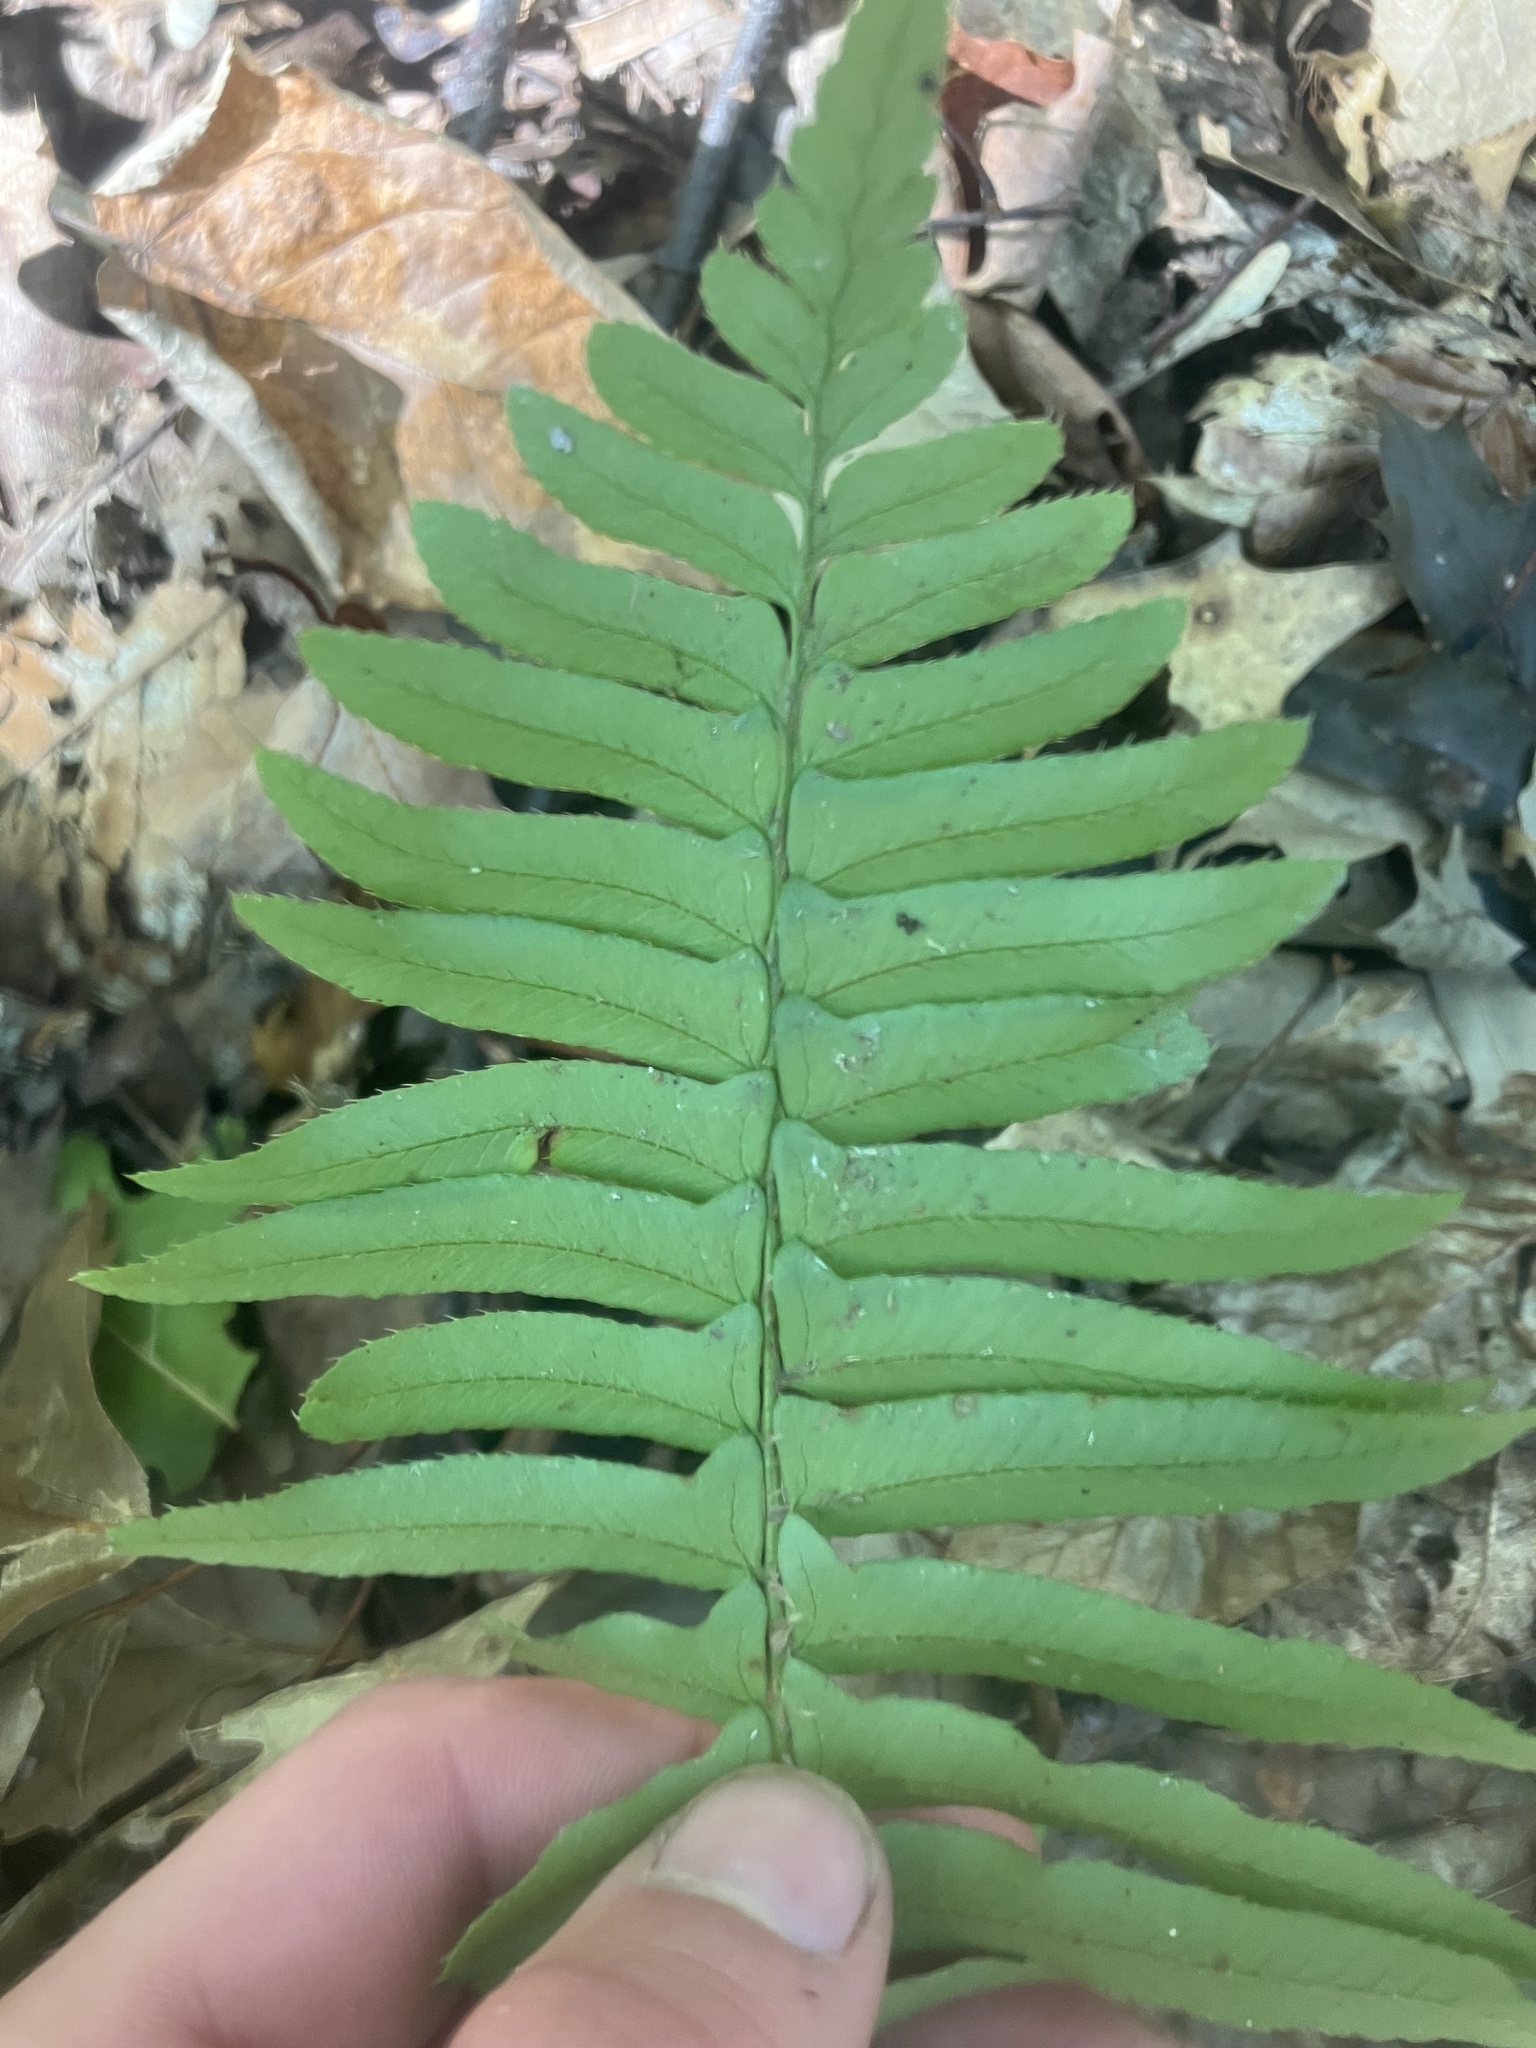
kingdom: Plantae
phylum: Tracheophyta
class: Polypodiopsida
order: Polypodiales
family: Dryopteridaceae
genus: Polystichum
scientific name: Polystichum acrostichoides
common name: Christmas fern
